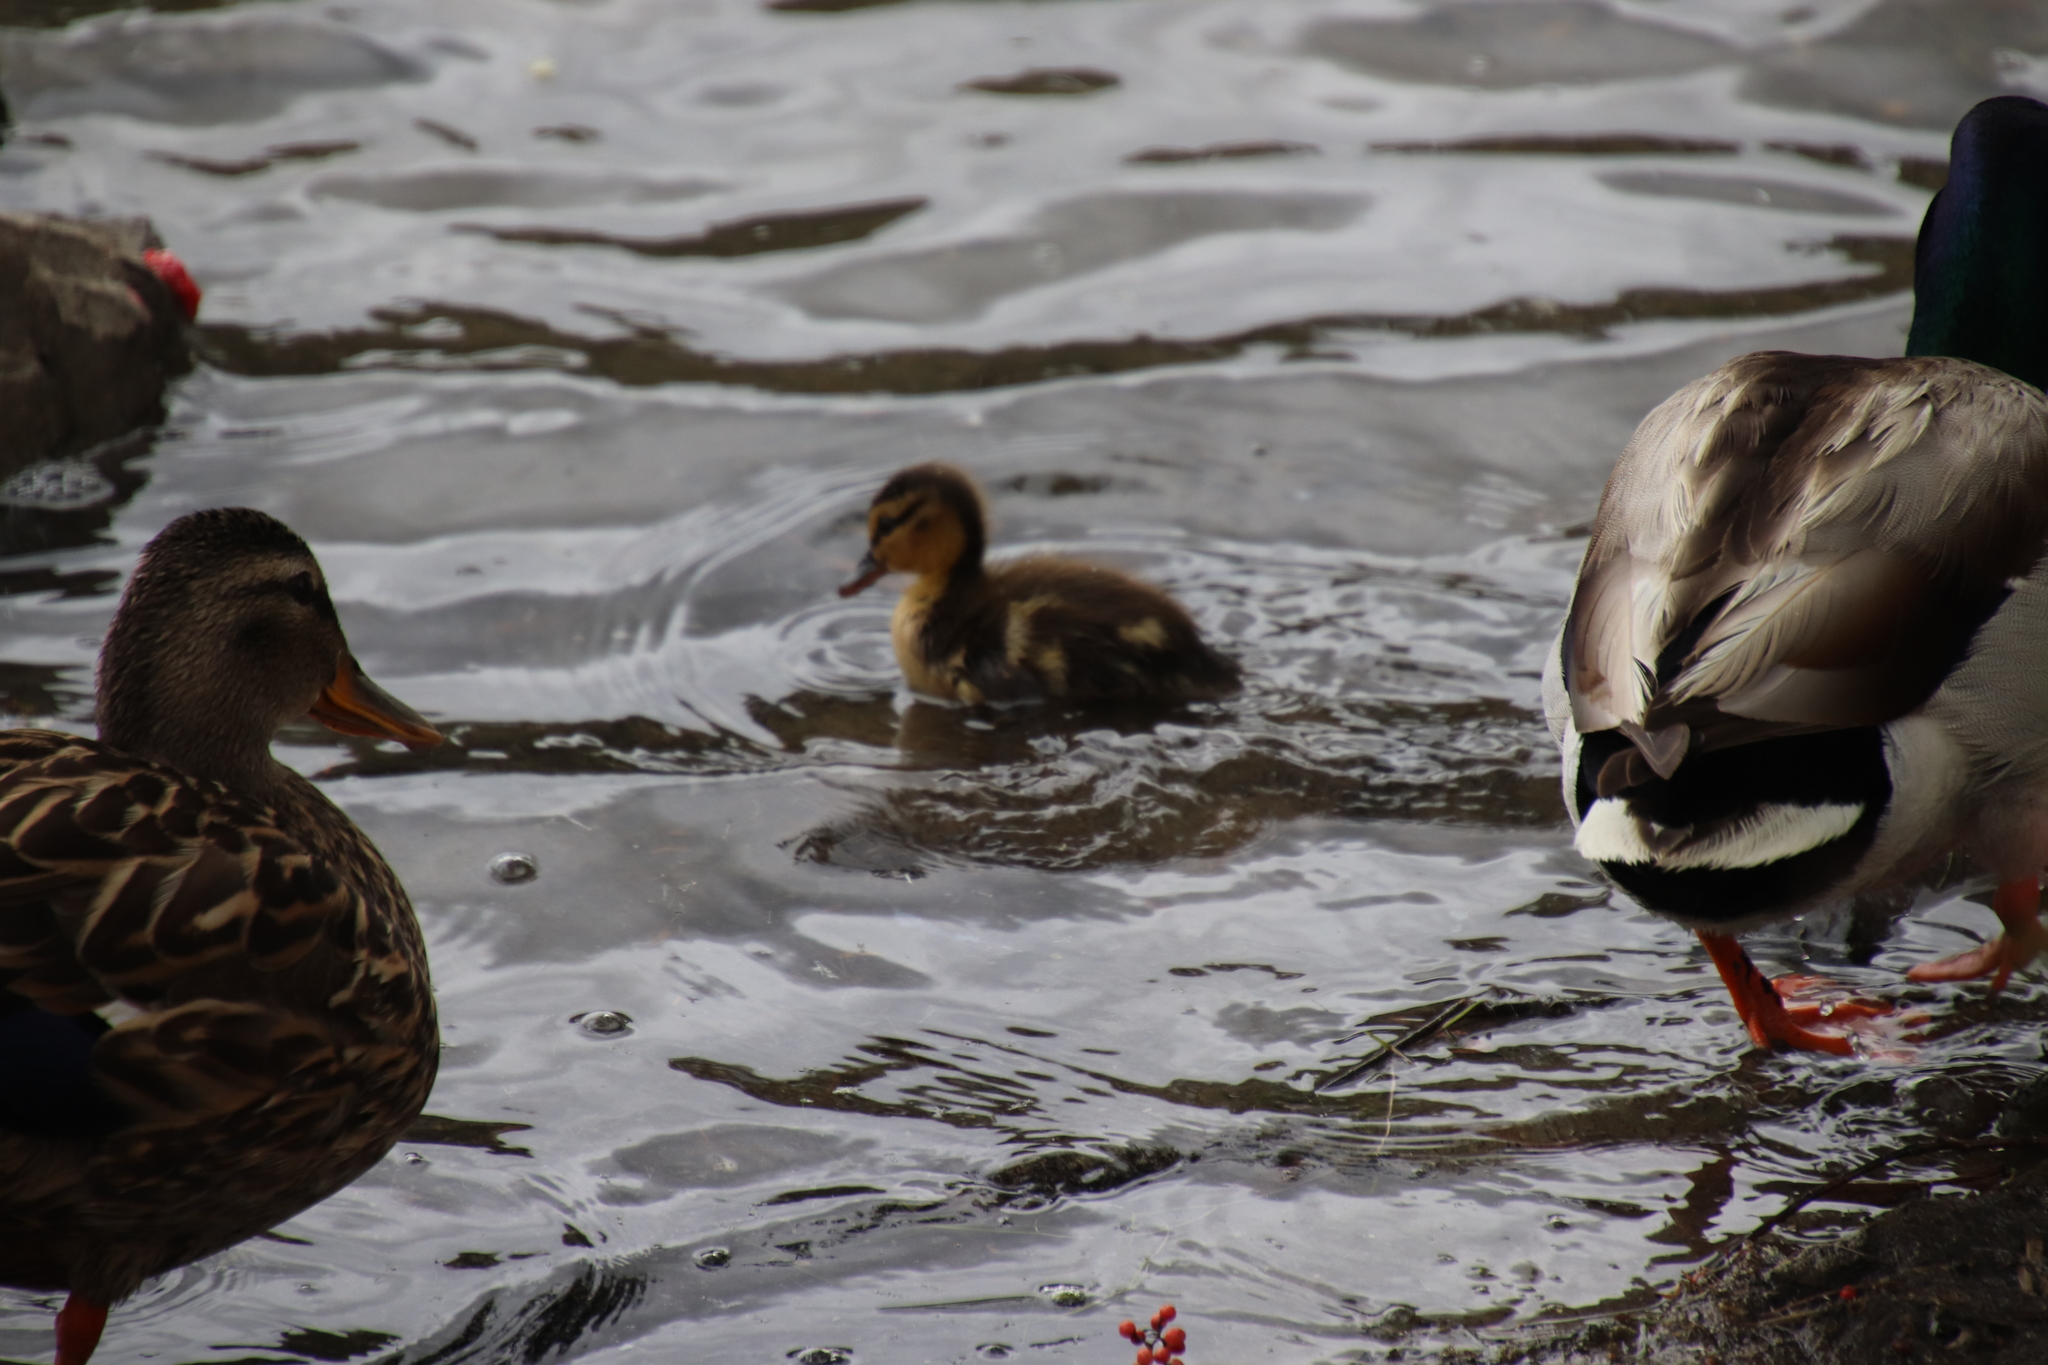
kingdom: Animalia
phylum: Chordata
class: Aves
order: Anseriformes
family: Anatidae
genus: Anas
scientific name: Anas platyrhynchos
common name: Mallard
